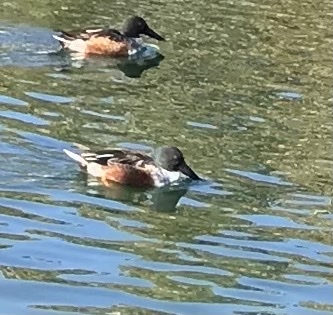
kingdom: Animalia
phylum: Chordata
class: Aves
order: Anseriformes
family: Anatidae
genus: Spatula
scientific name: Spatula clypeata
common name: Northern shoveler
